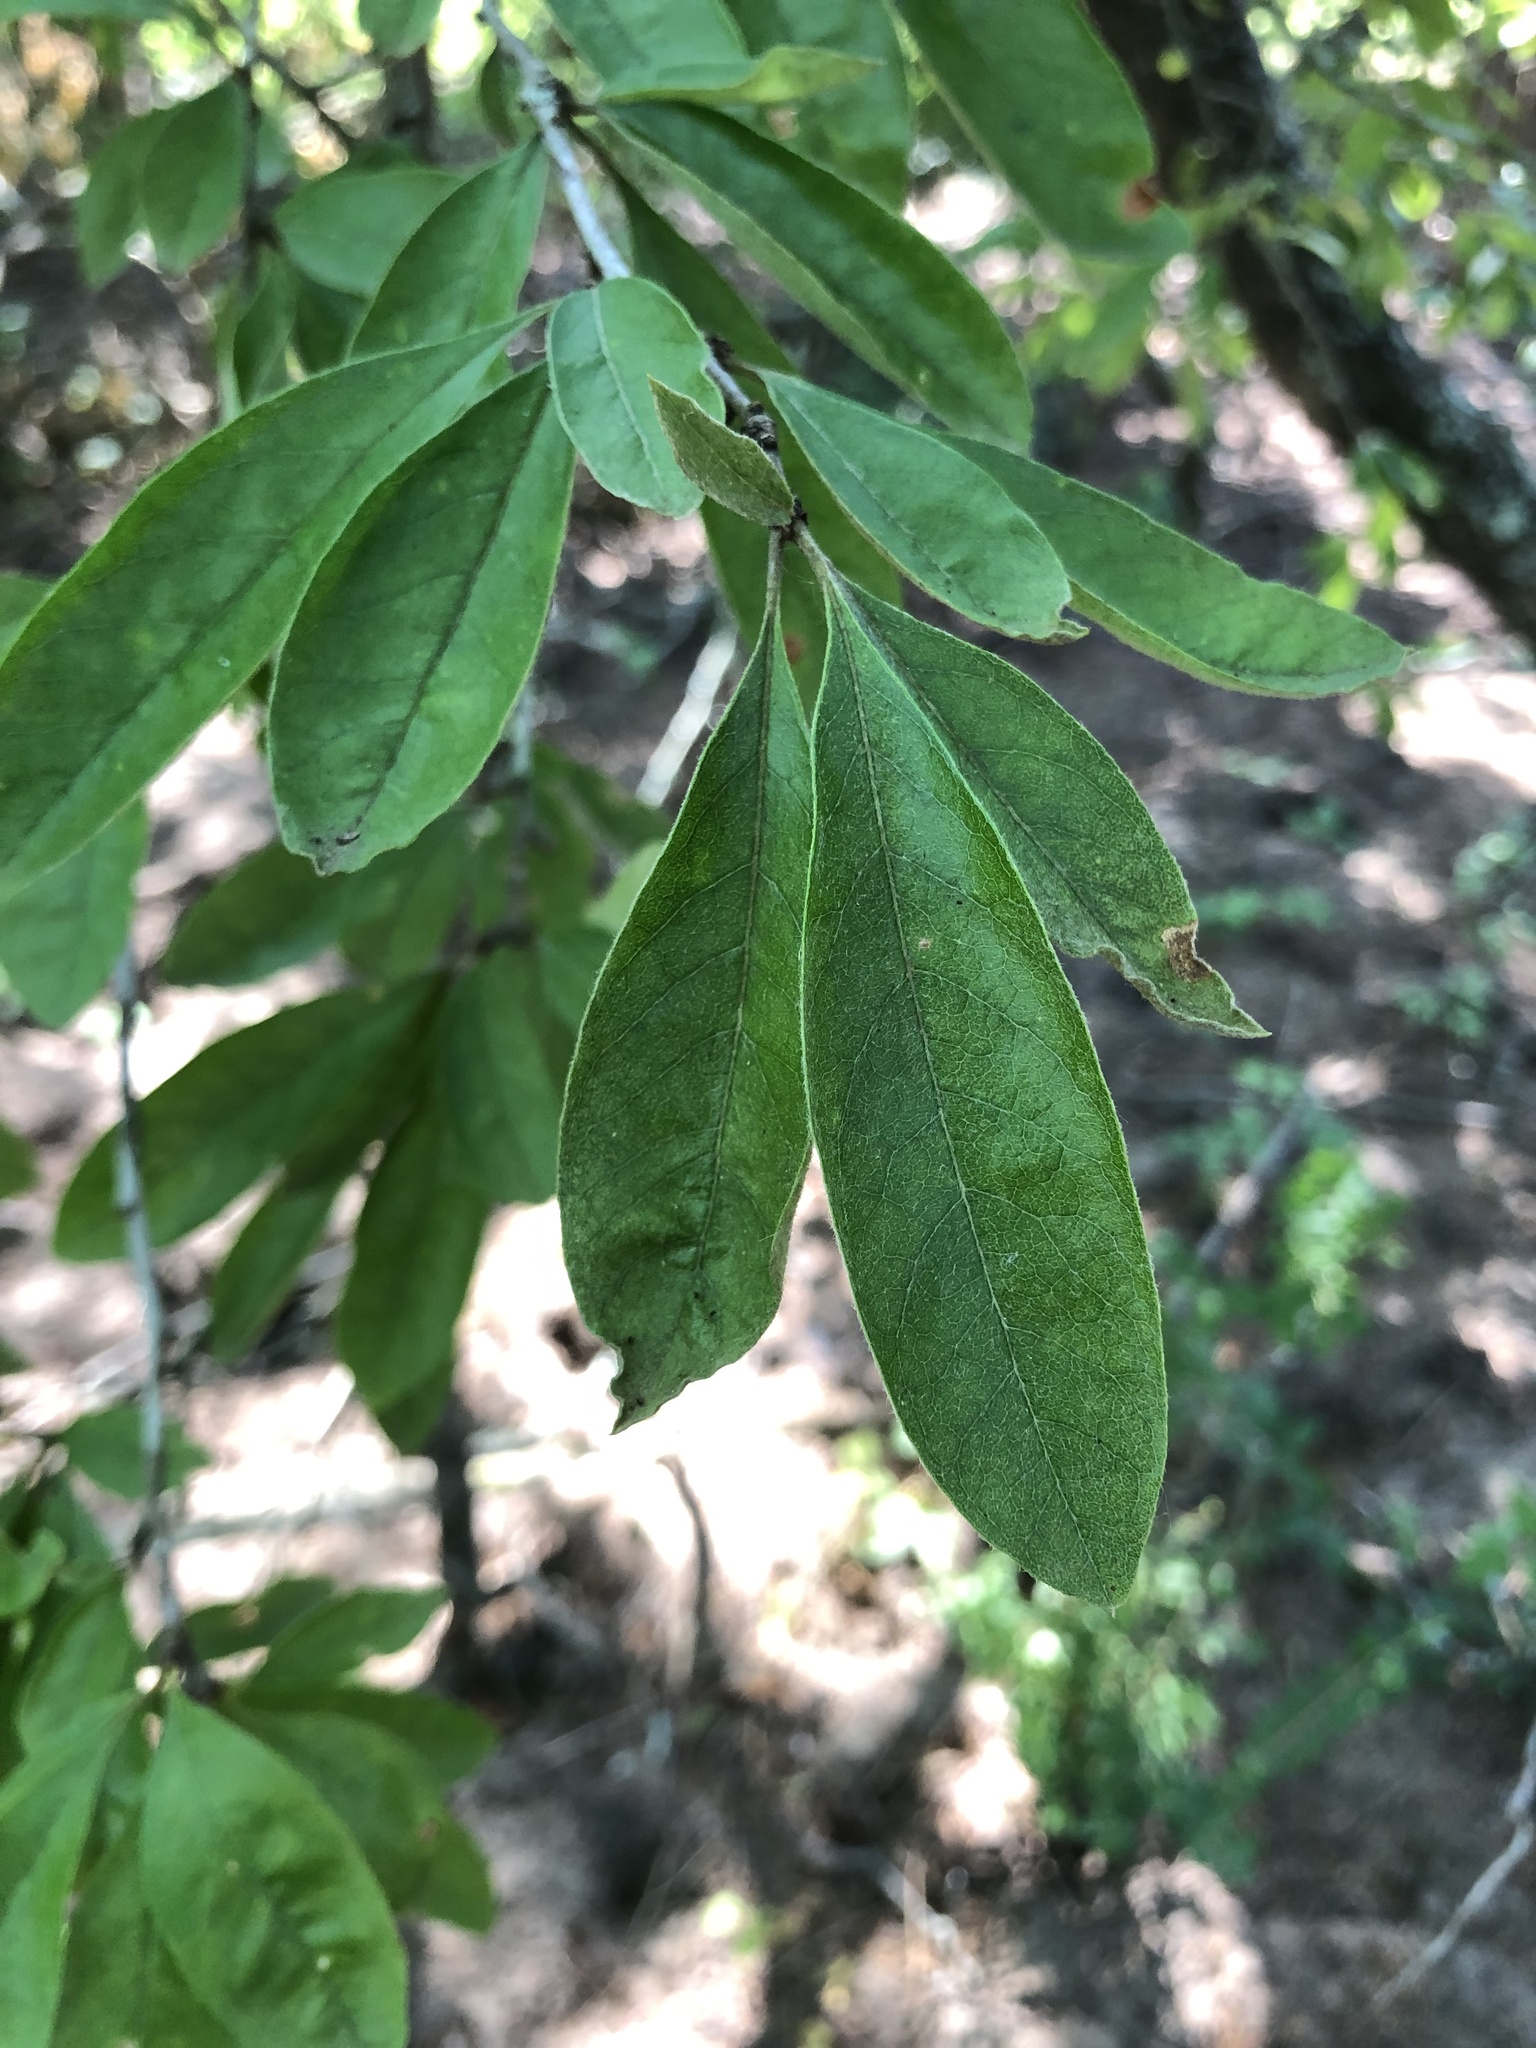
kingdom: Plantae
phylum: Tracheophyta
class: Magnoliopsida
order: Ericales
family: Sapotaceae
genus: Sideroxylon
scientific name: Sideroxylon lanuginosum
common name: Chittamwood
